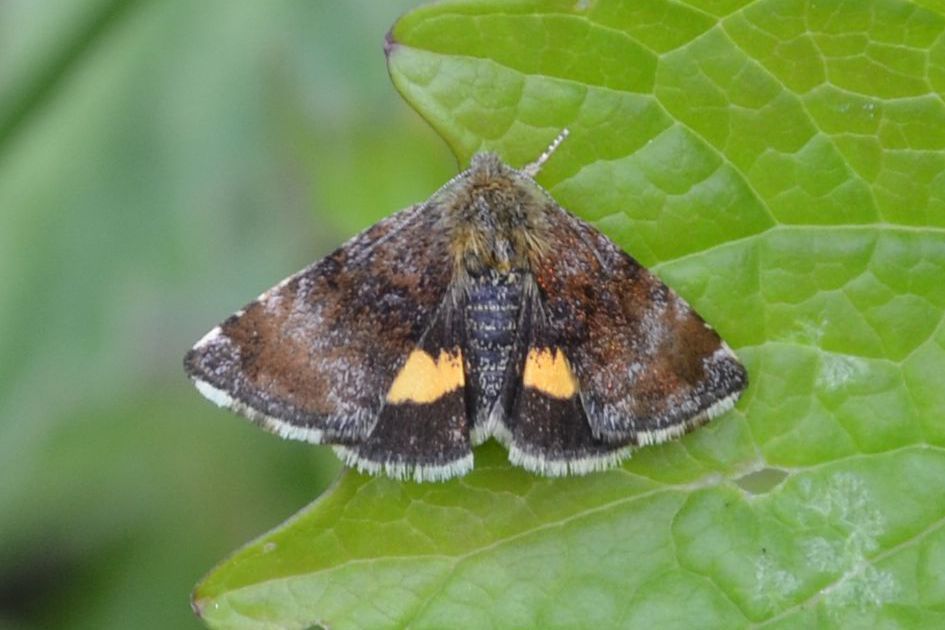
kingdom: Animalia
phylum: Arthropoda
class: Insecta
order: Lepidoptera
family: Noctuidae
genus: Panemeria
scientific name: Panemeria tenebrata
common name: Small yellow underwing
